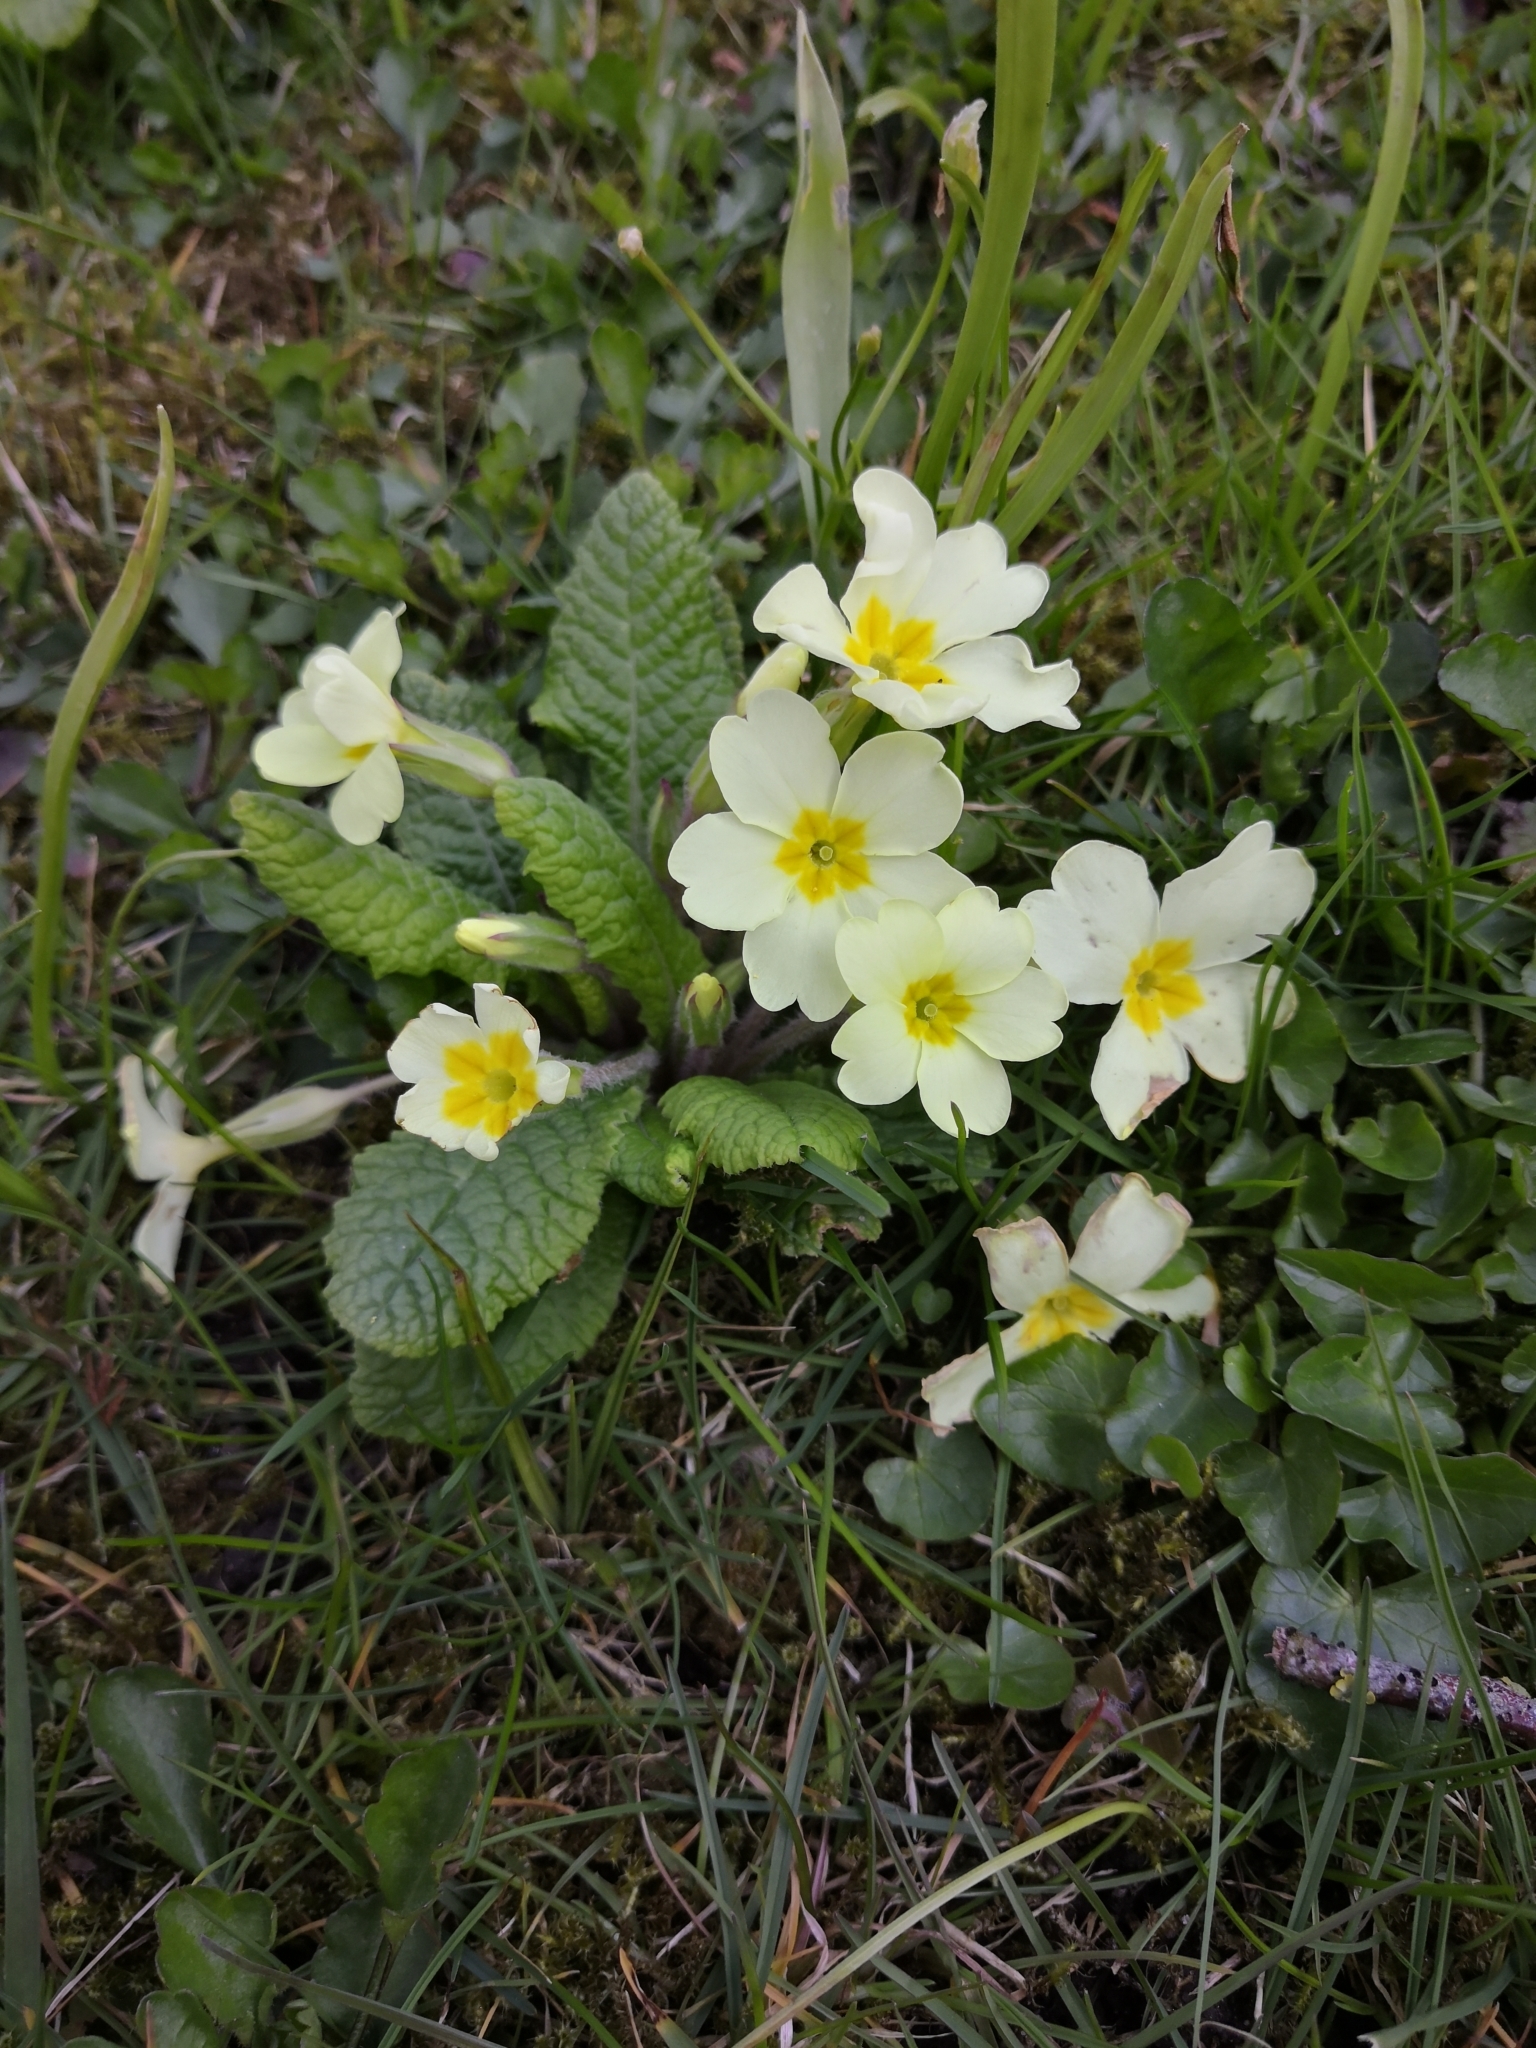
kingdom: Plantae
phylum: Tracheophyta
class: Magnoliopsida
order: Ericales
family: Primulaceae
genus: Primula
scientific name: Primula vulgaris
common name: Primrose
